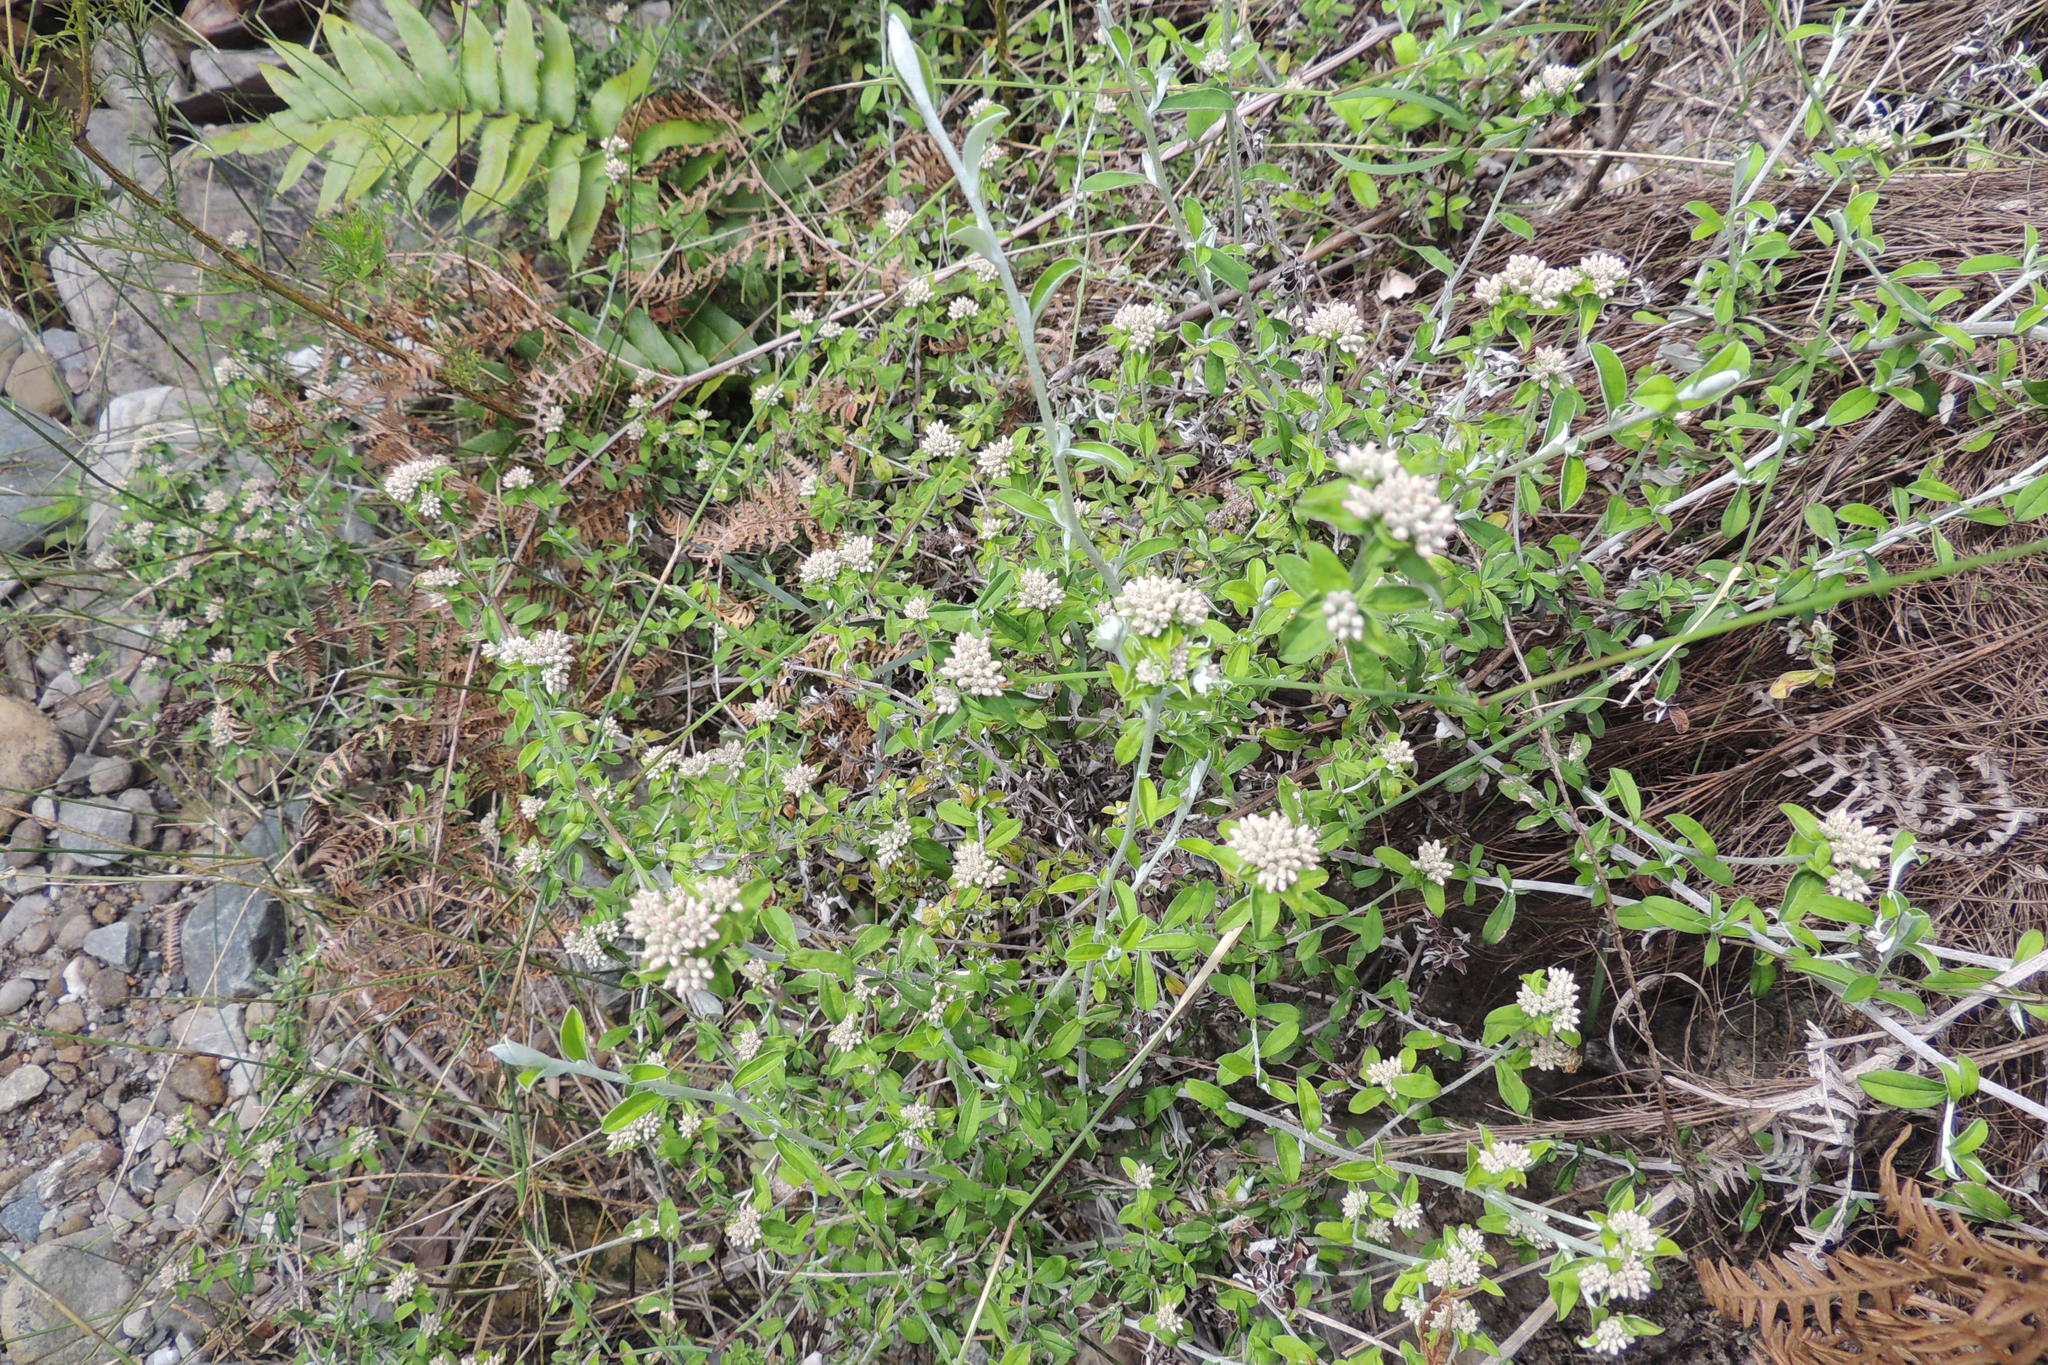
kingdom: Plantae
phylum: Tracheophyta
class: Magnoliopsida
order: Asterales
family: Asteraceae
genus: Plecostachys
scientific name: Plecostachys polifolia
